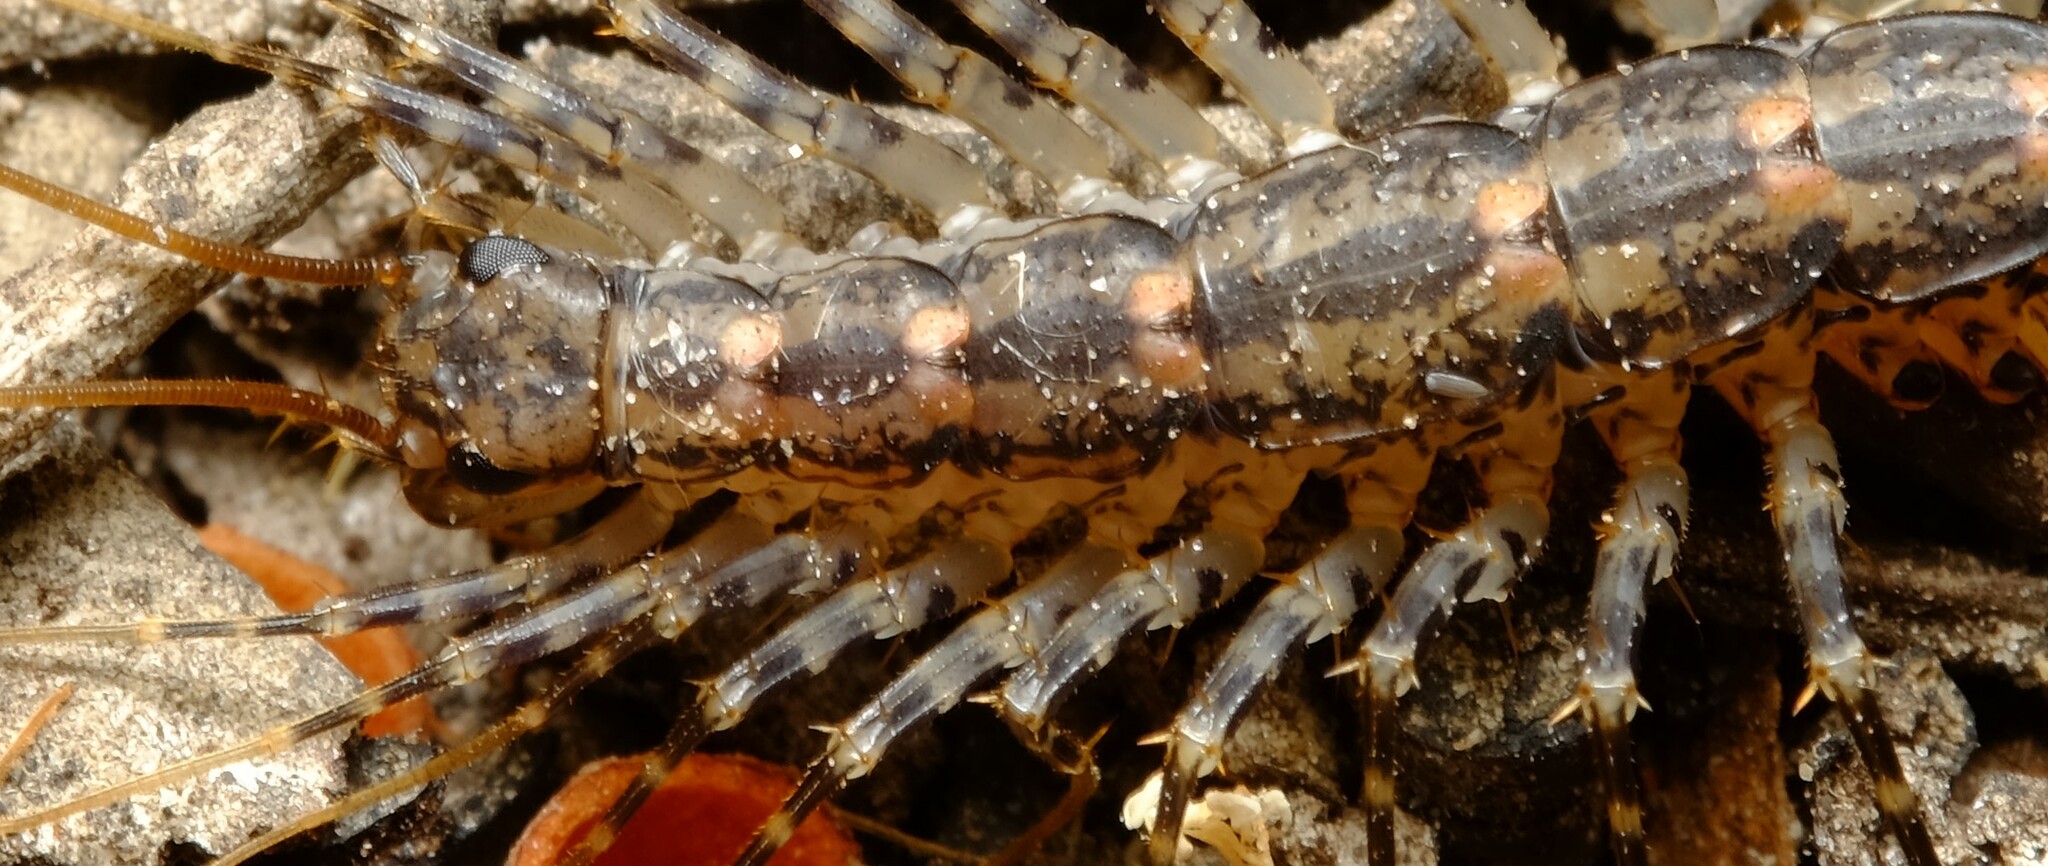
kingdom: Animalia
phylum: Arthropoda
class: Chilopoda
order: Scutigeromorpha
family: Scutigeridae
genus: Allothereua
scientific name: Allothereua maculata
